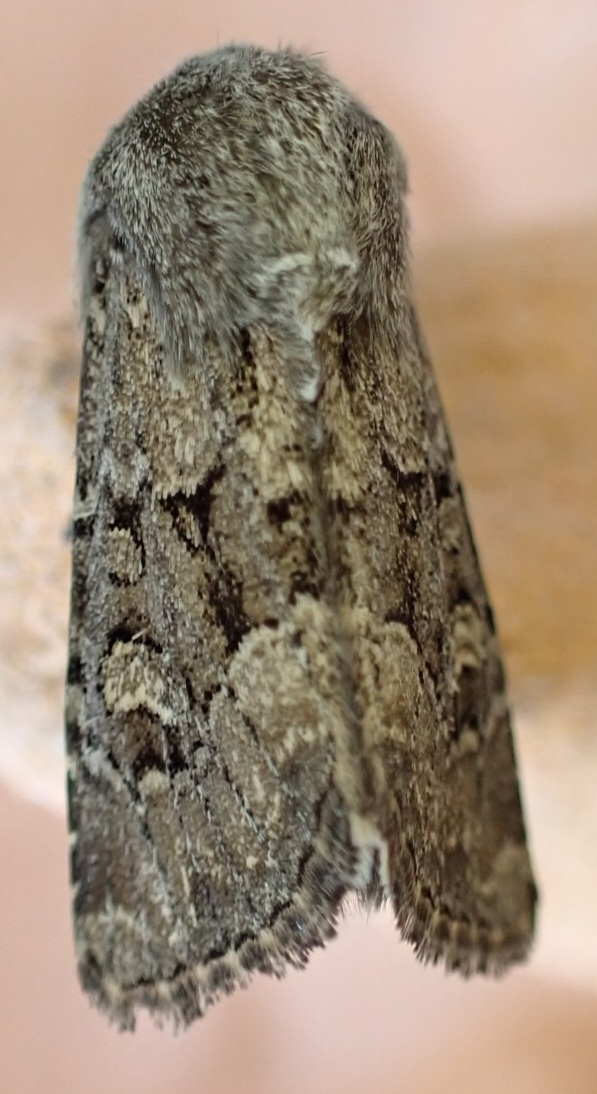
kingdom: Animalia
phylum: Arthropoda
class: Insecta
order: Lepidoptera
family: Noctuidae
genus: Luperina
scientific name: Luperina testacea
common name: Flounced rustic
